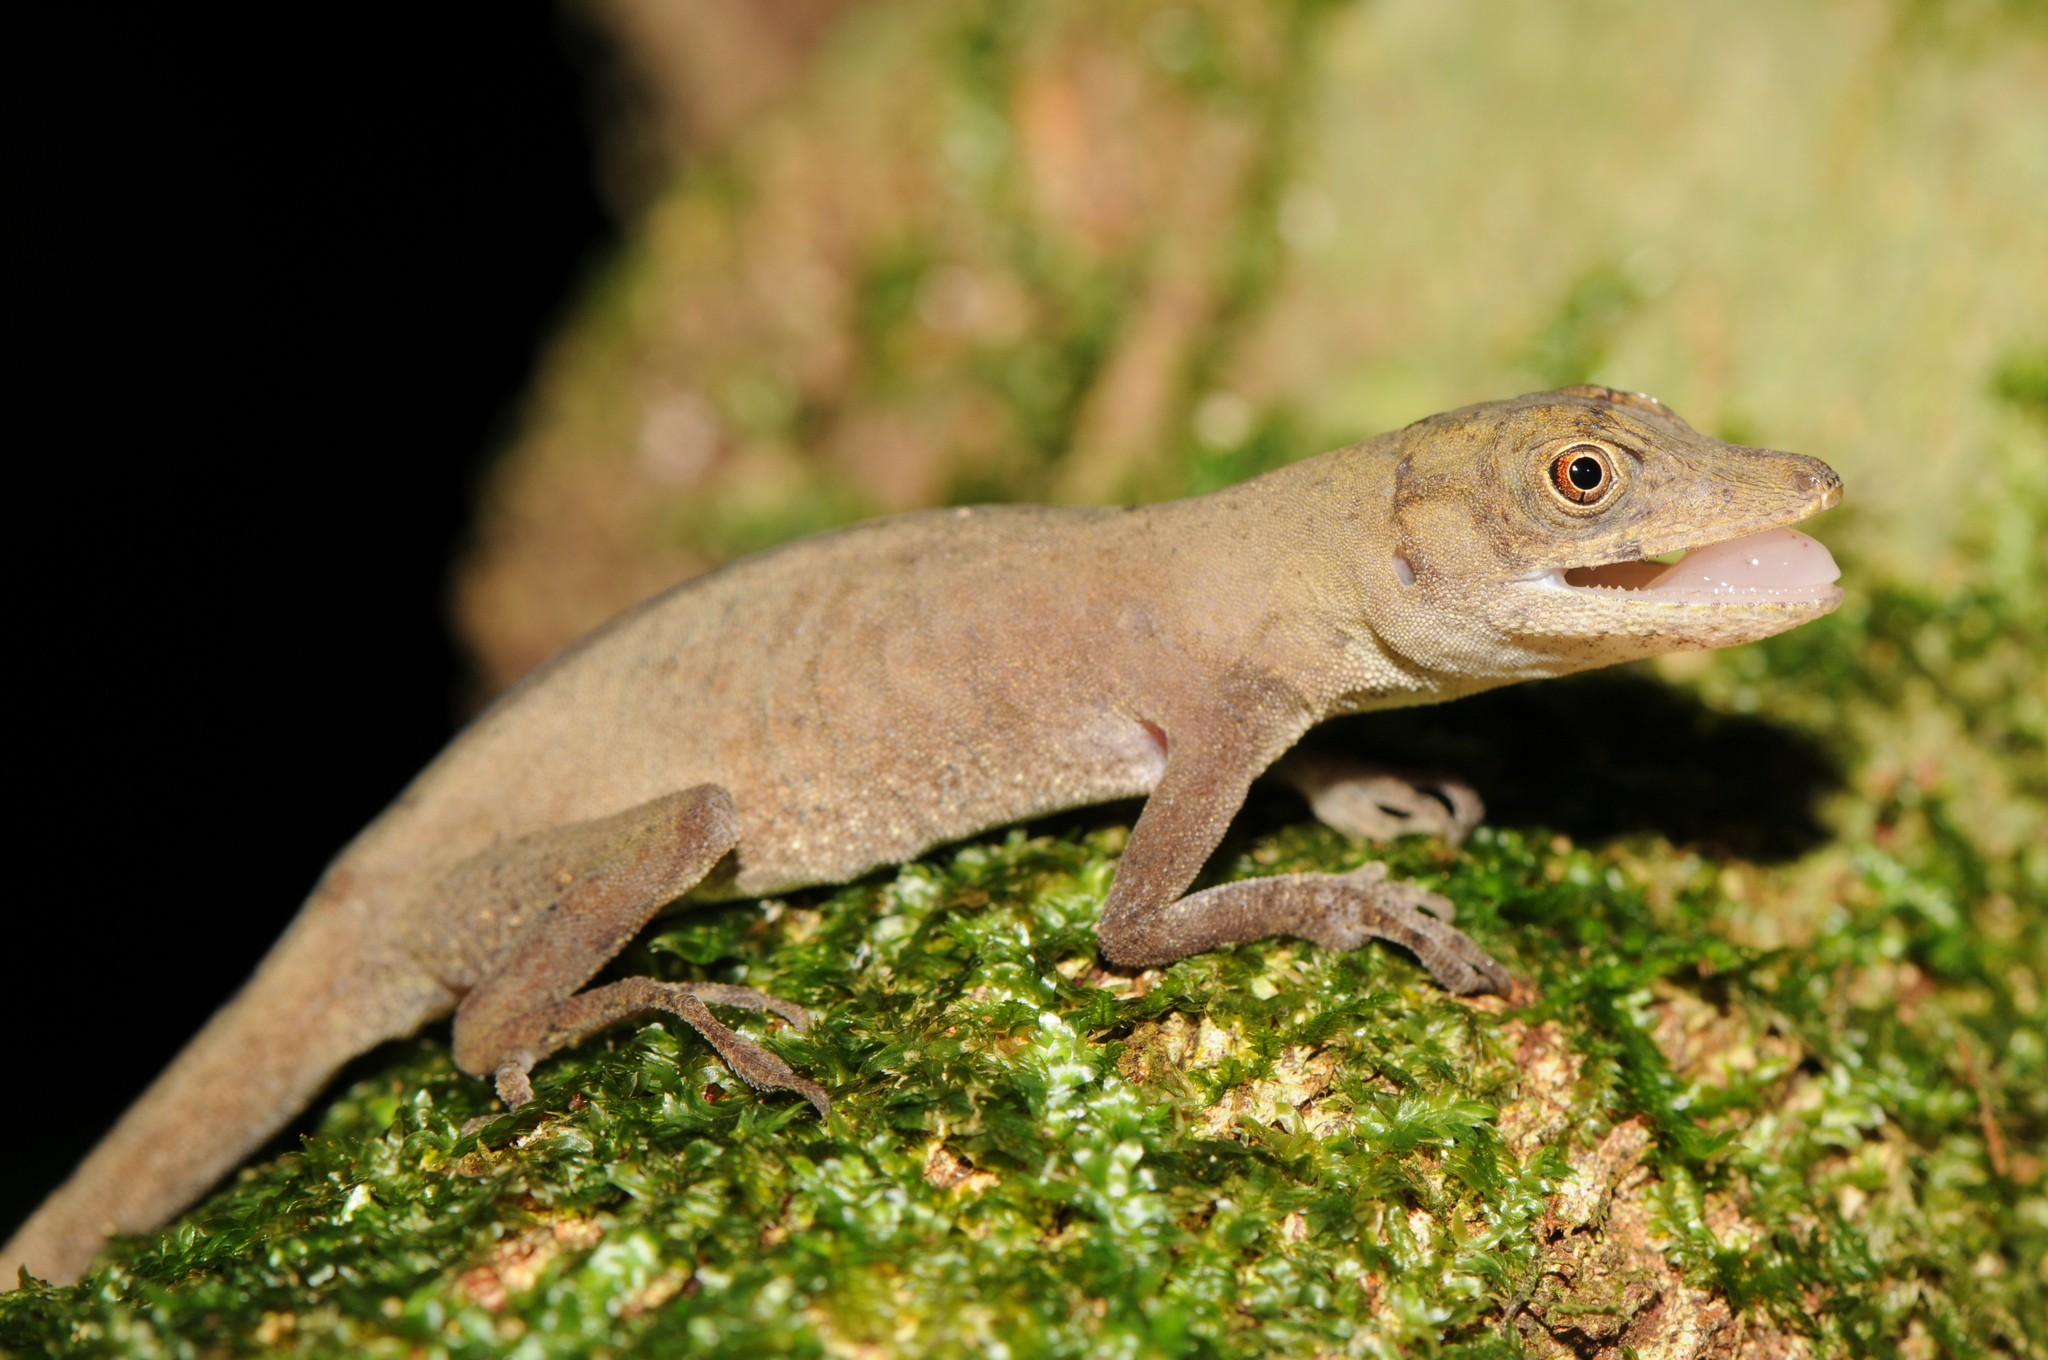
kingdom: Animalia
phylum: Chordata
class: Squamata
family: Dactyloidae
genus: Anolis
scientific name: Anolis fuscoauratus
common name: Brown-eared anole
